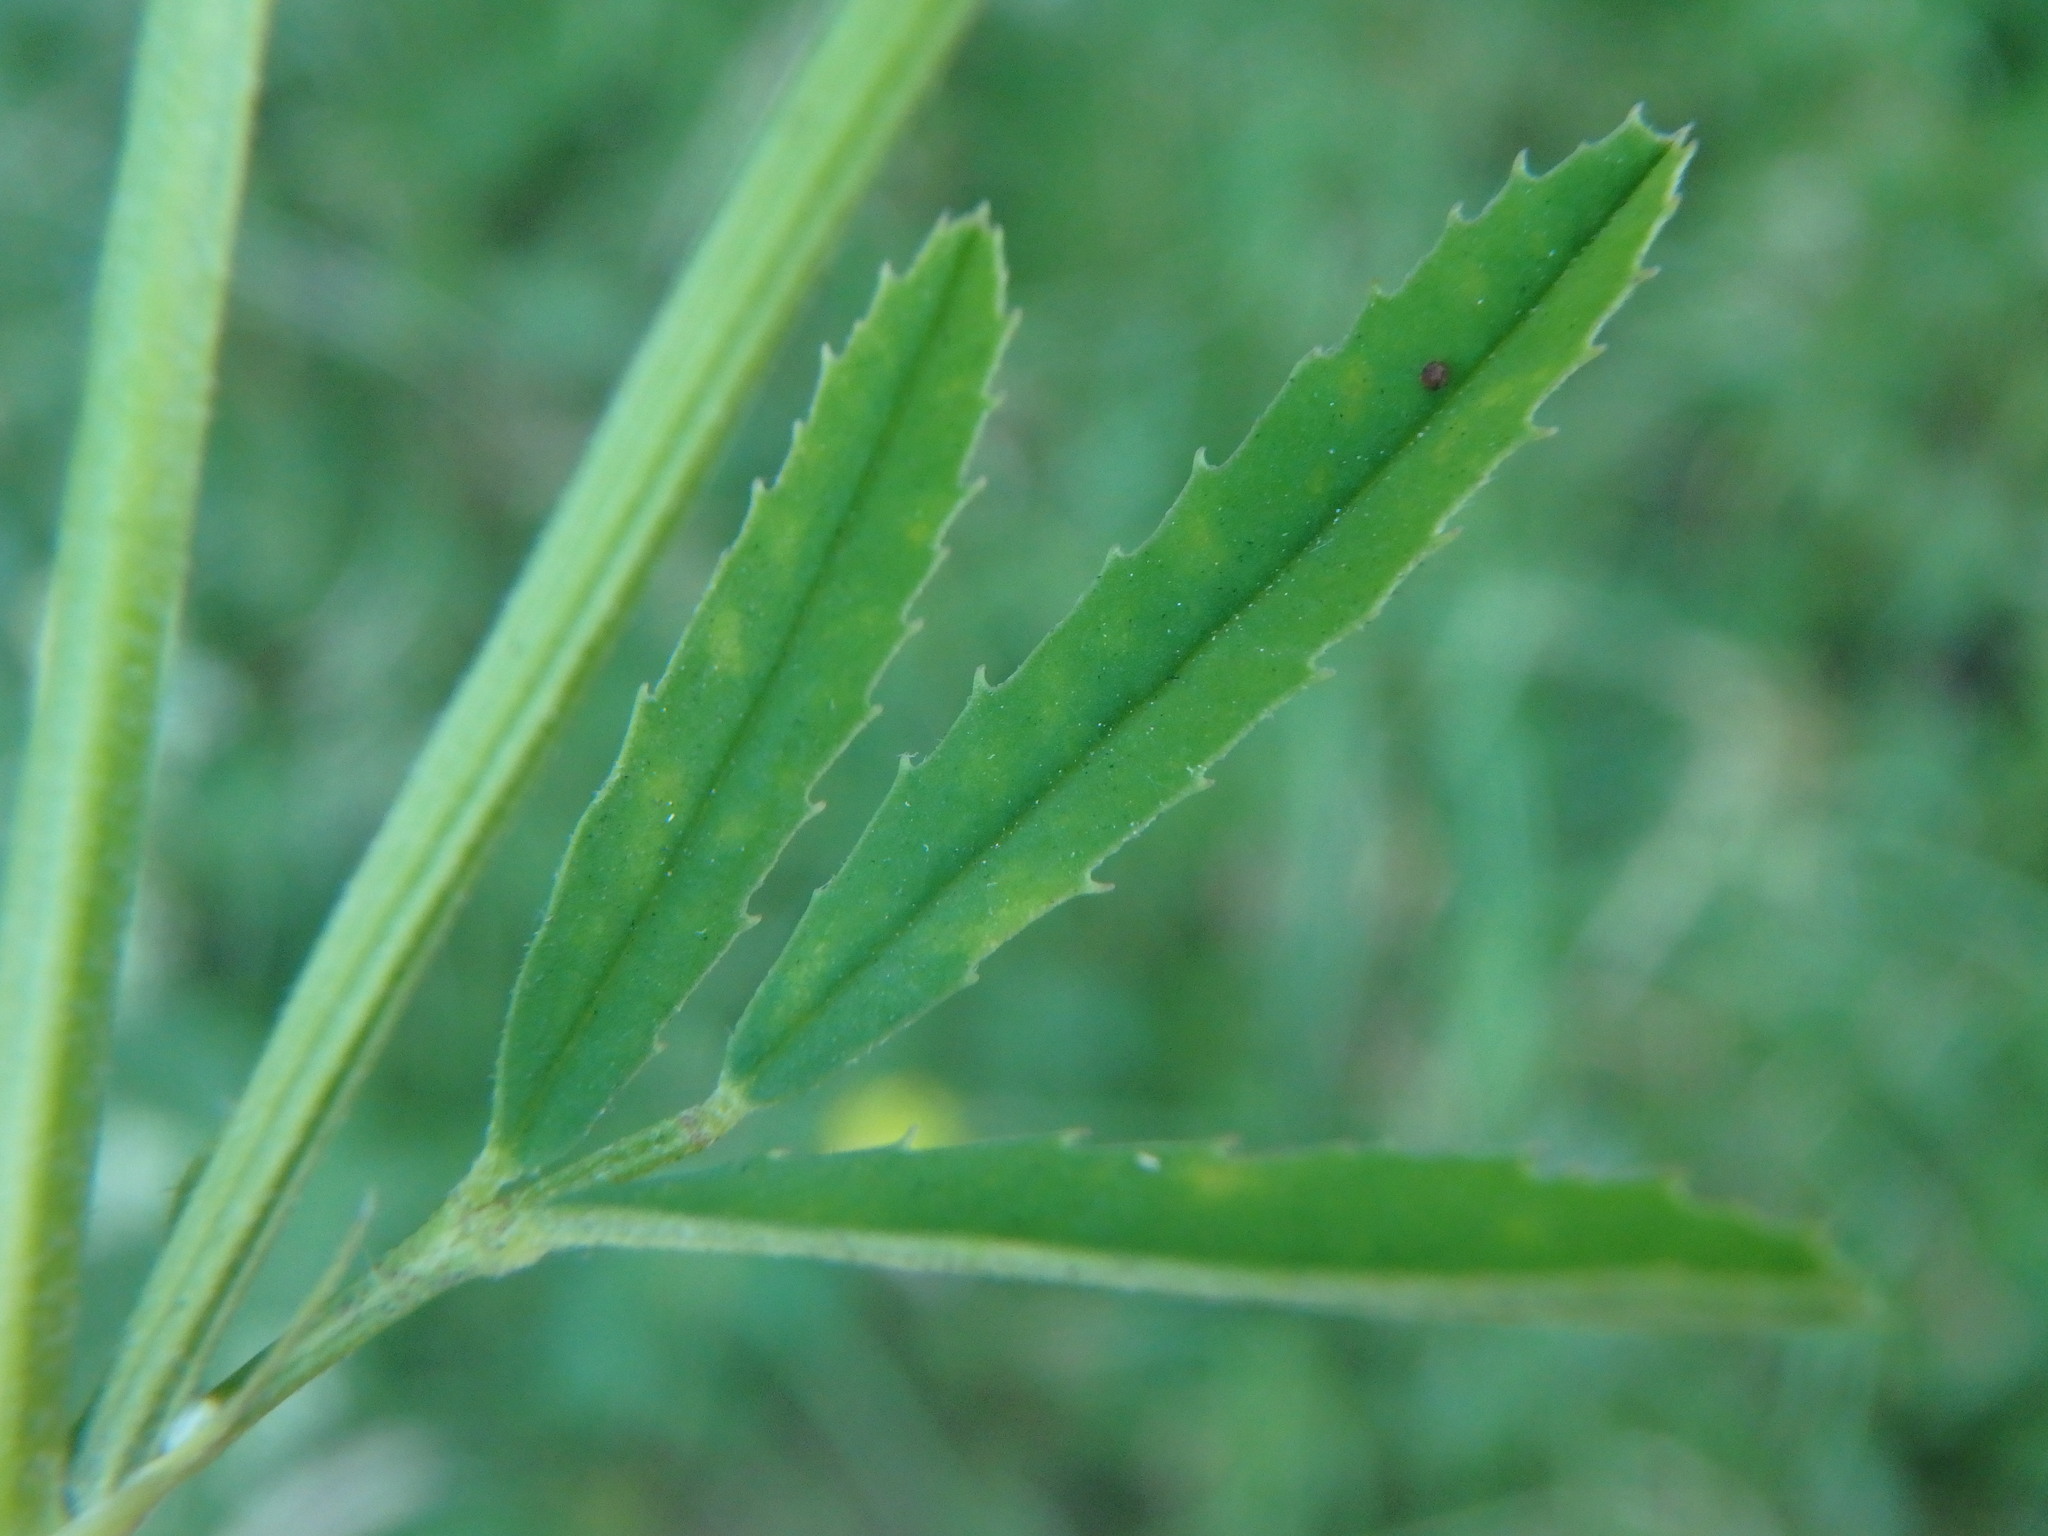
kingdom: Plantae
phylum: Tracheophyta
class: Magnoliopsida
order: Fabales
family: Fabaceae
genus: Melilotus
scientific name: Melilotus officinalis
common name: Sweetclover
